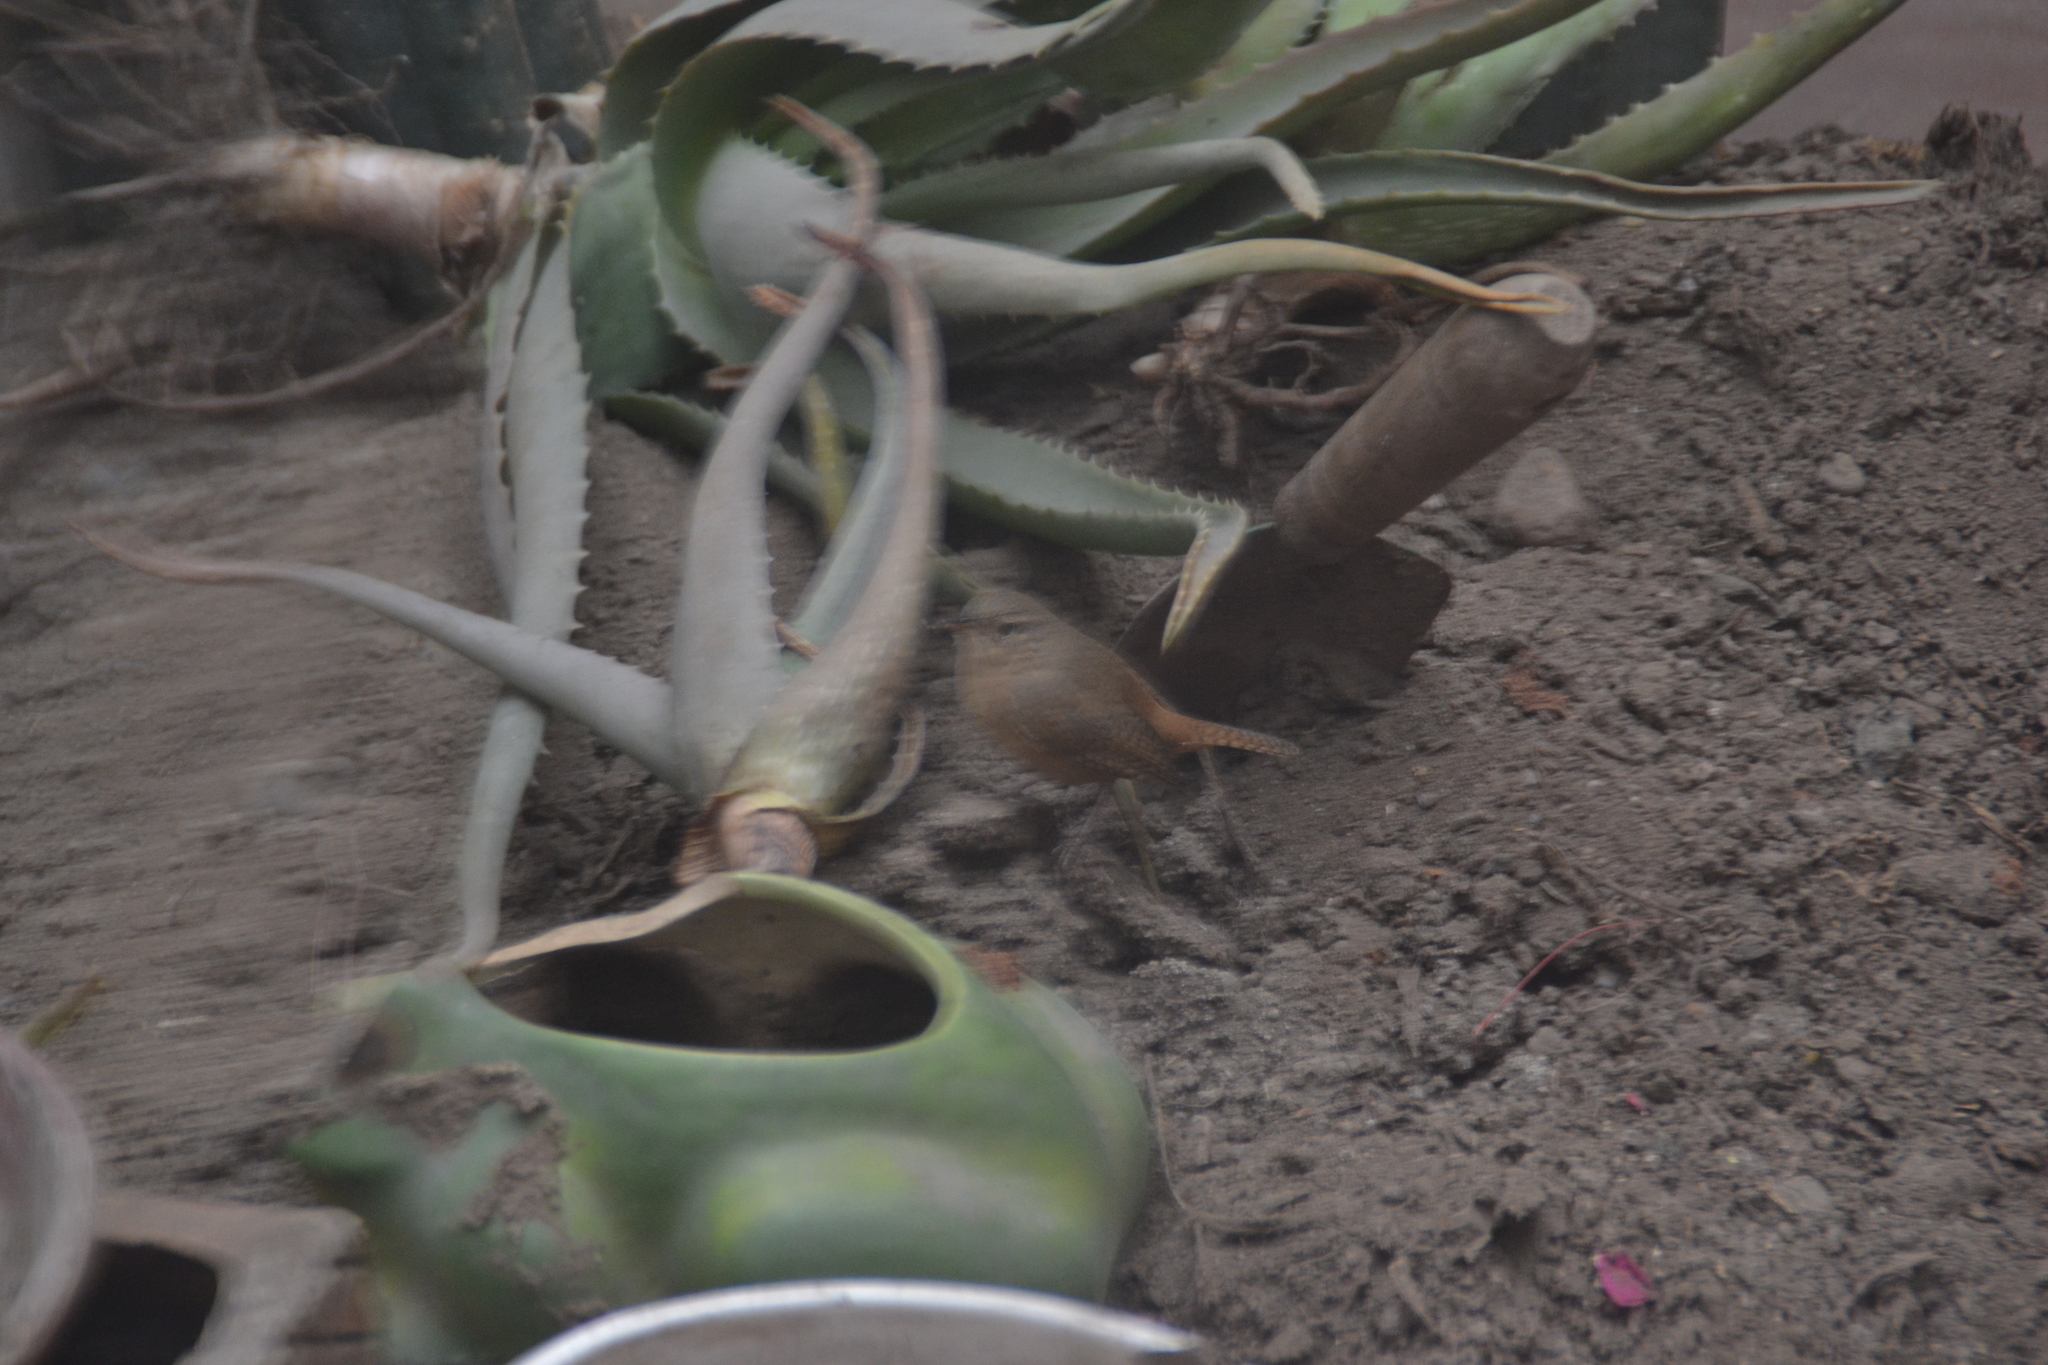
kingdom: Animalia
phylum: Chordata
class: Aves
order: Passeriformes
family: Troglodytidae
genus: Troglodytes
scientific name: Troglodytes aedon
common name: House wren
